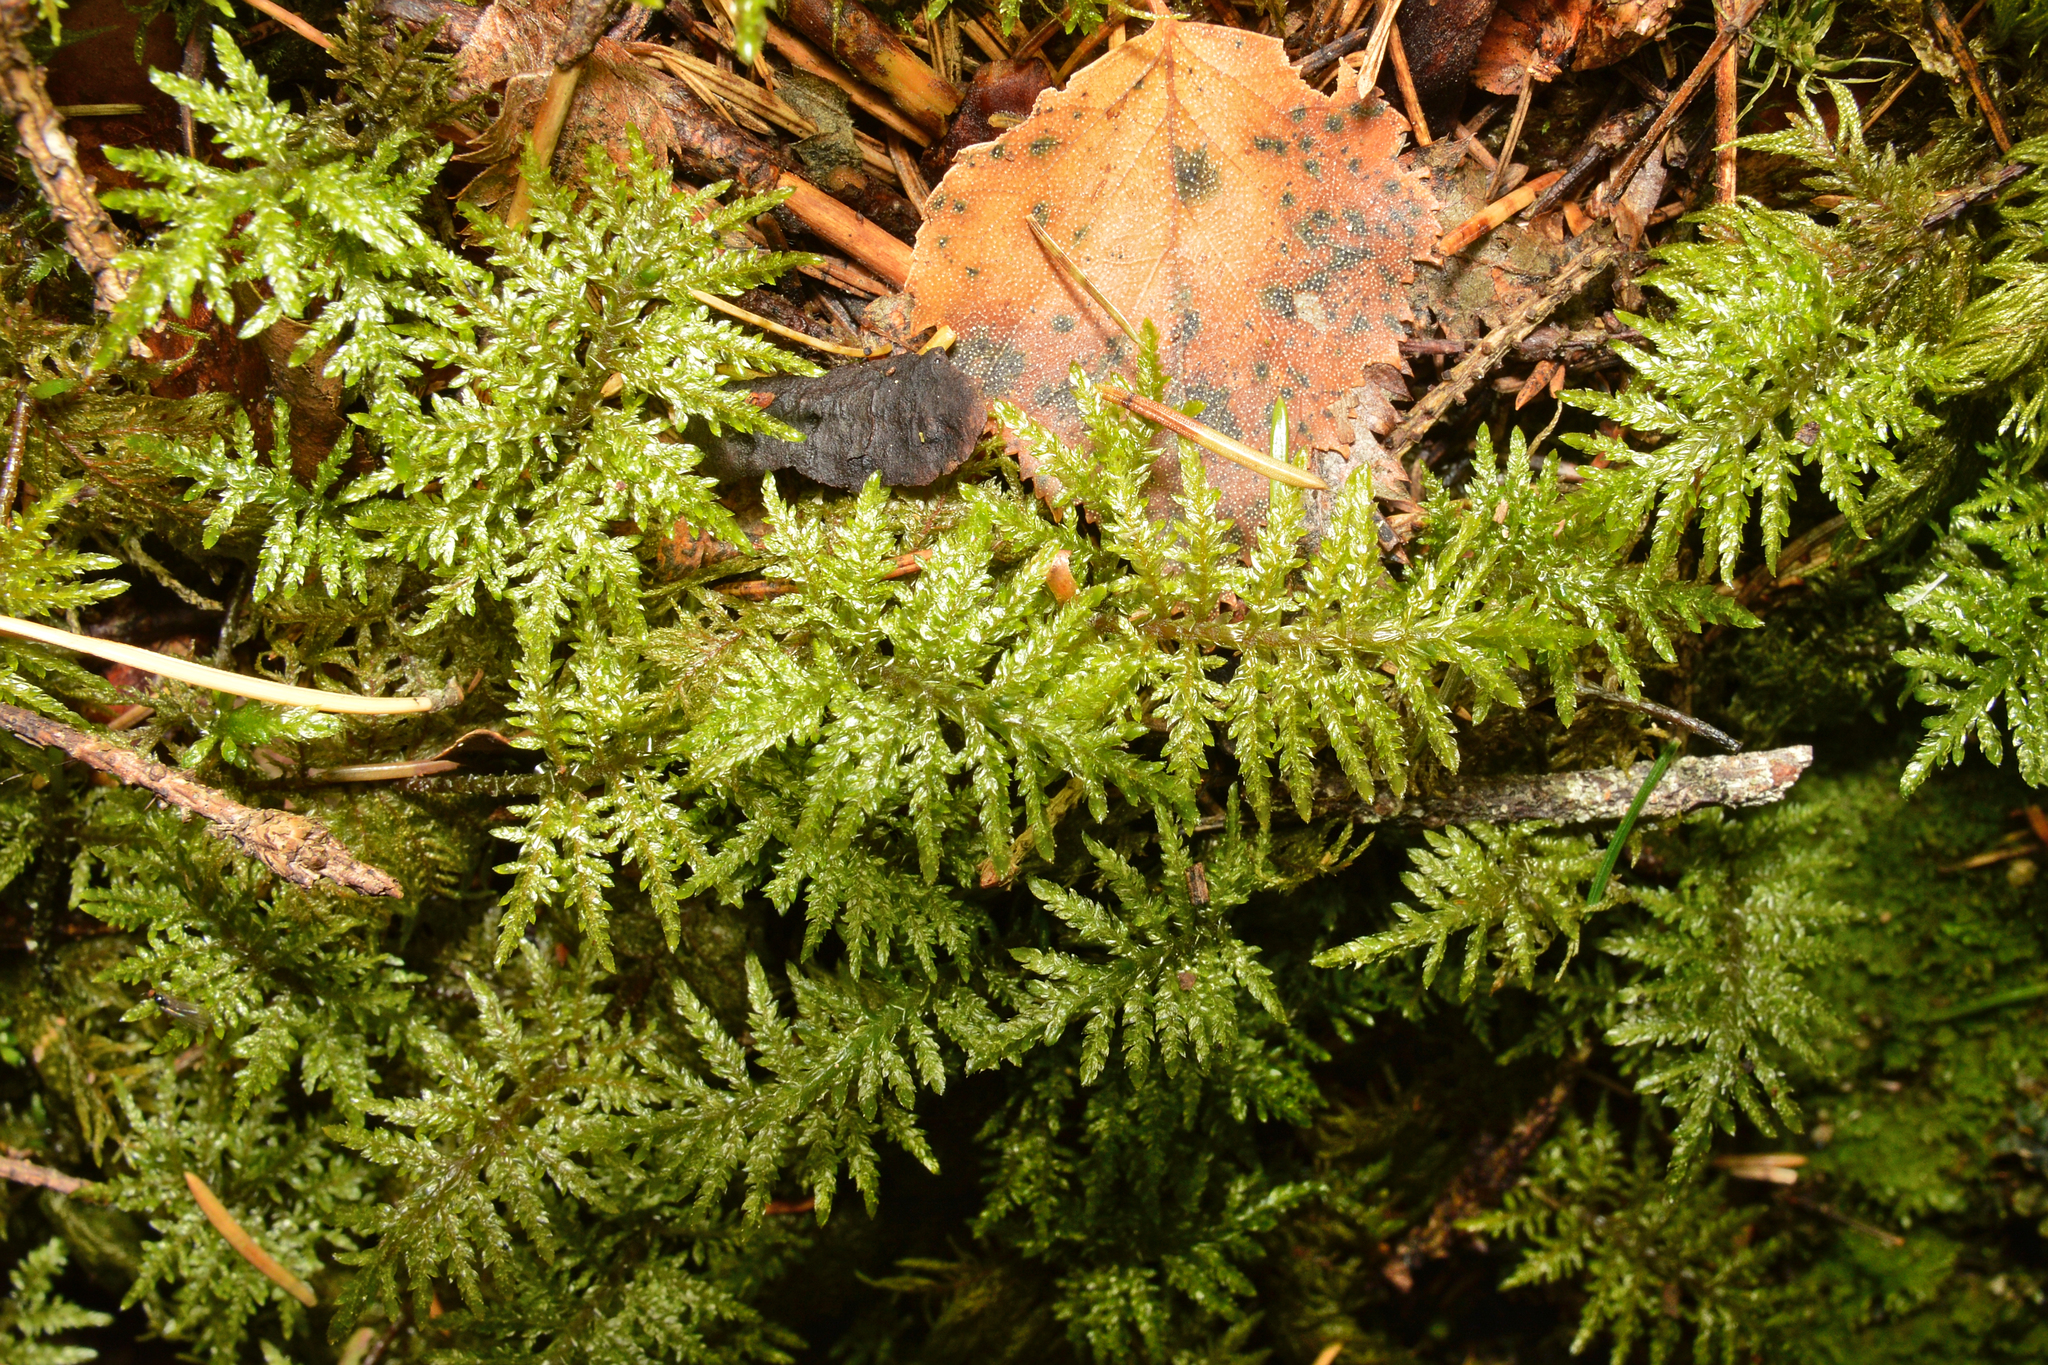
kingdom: Plantae
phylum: Bryophyta
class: Bryopsida
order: Hypnales
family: Hylocomiaceae
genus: Hylocomium
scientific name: Hylocomium splendens
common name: Stairstep moss
